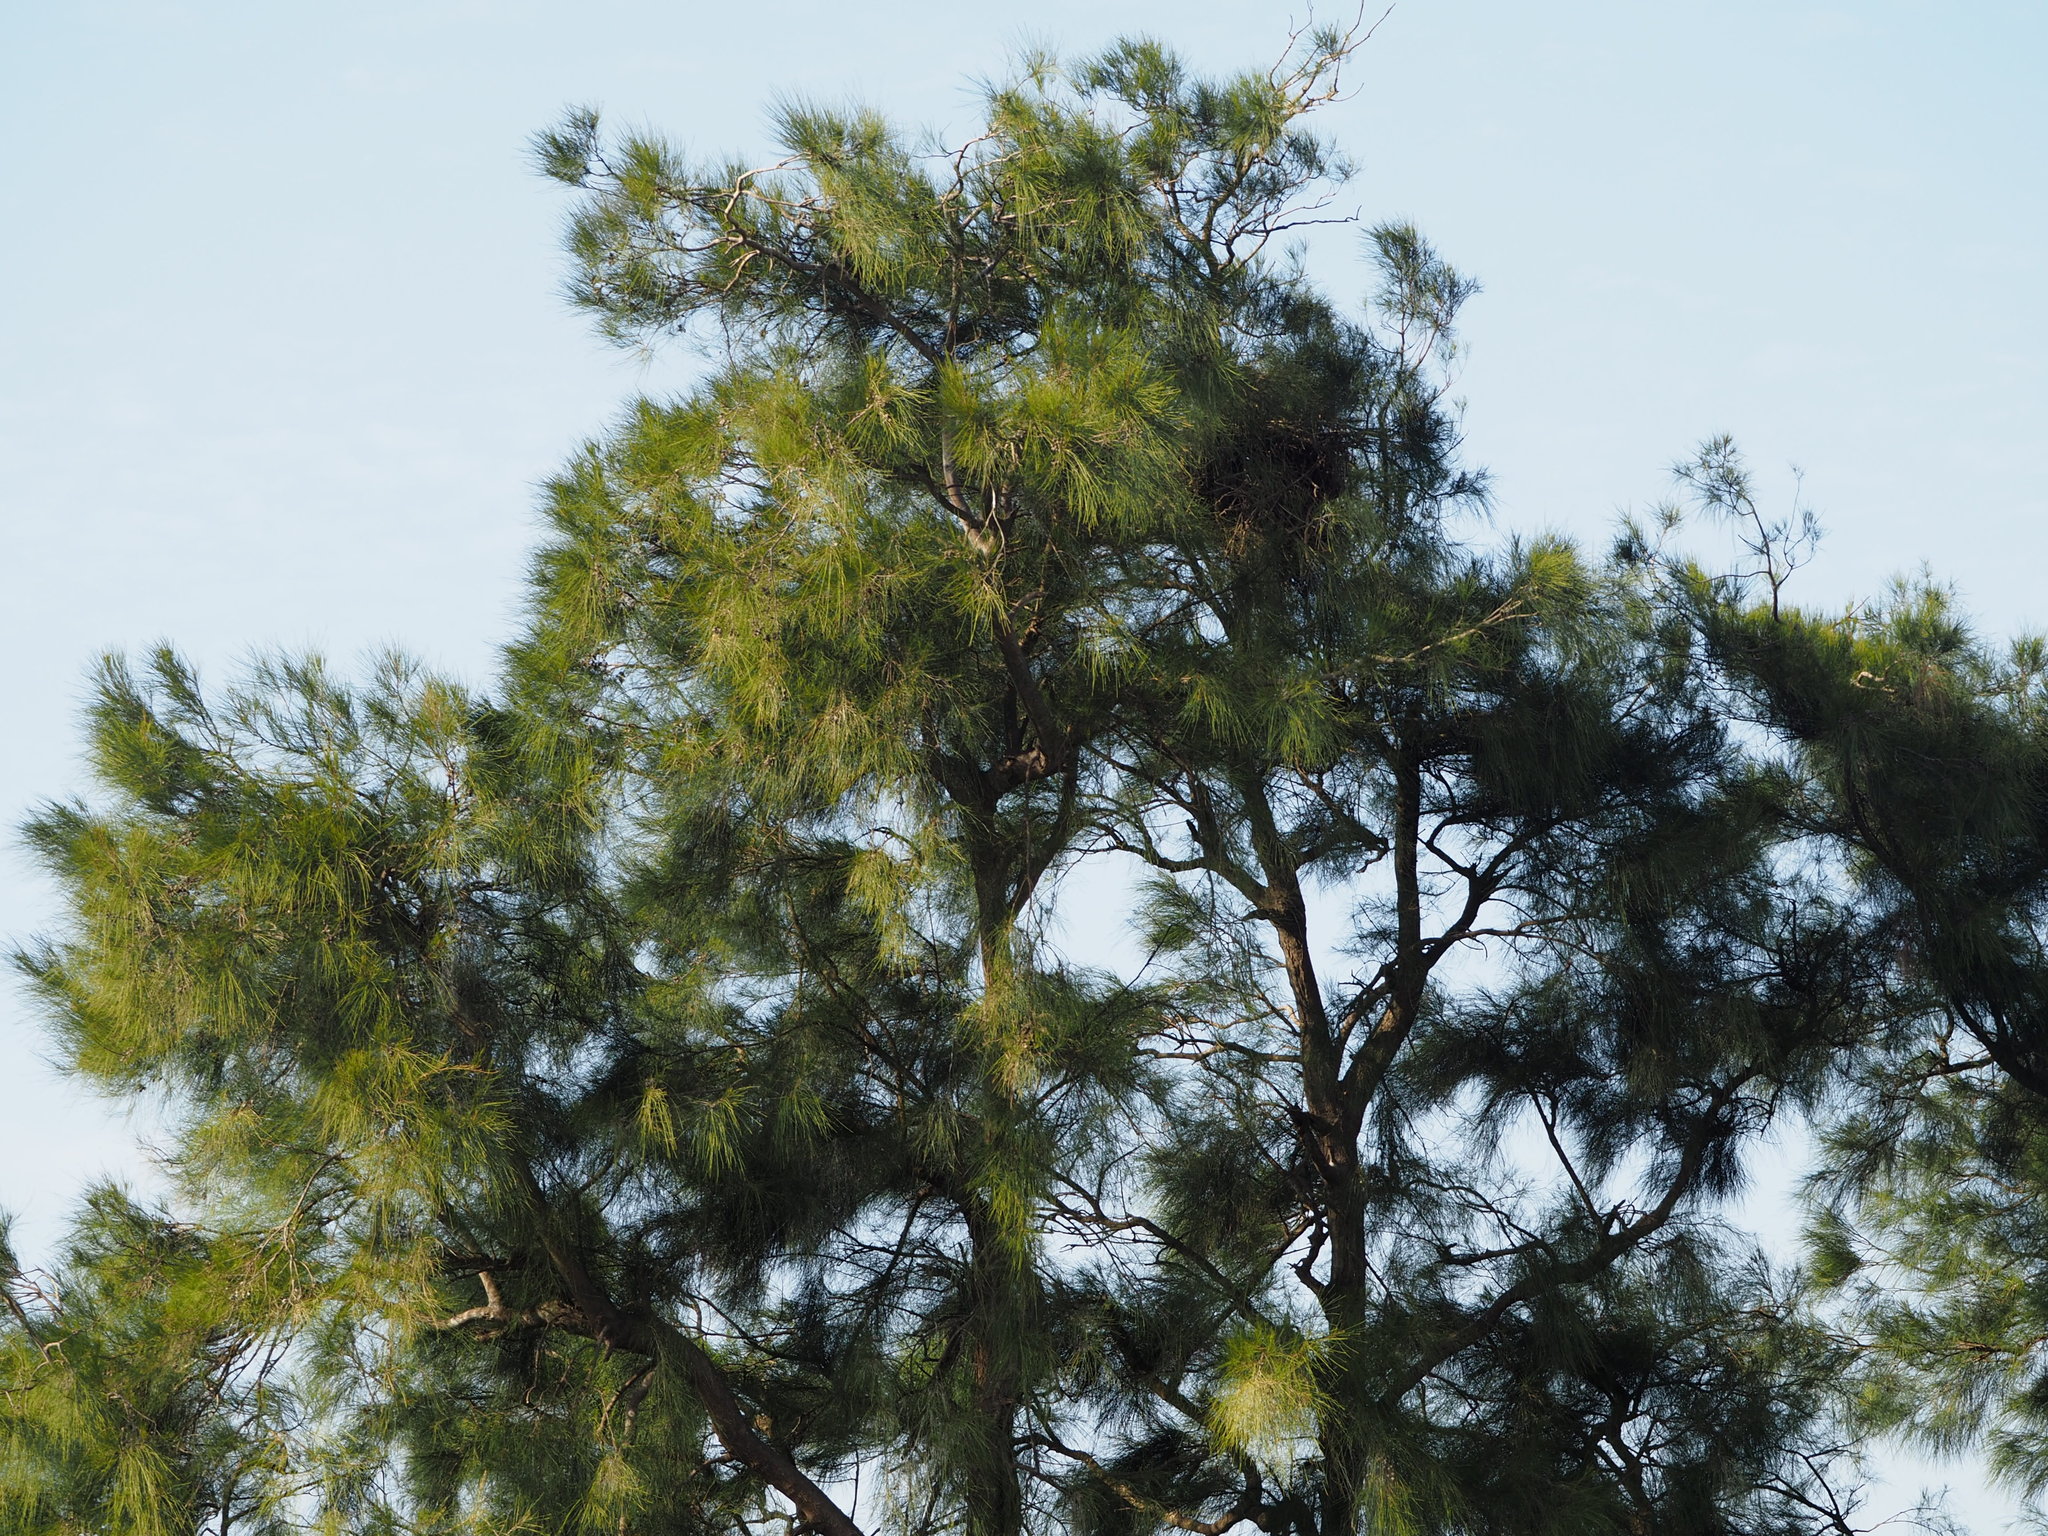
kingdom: Plantae
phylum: Tracheophyta
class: Magnoliopsida
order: Fagales
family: Casuarinaceae
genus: Casuarina
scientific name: Casuarina equisetifolia
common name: Beach sheoak
